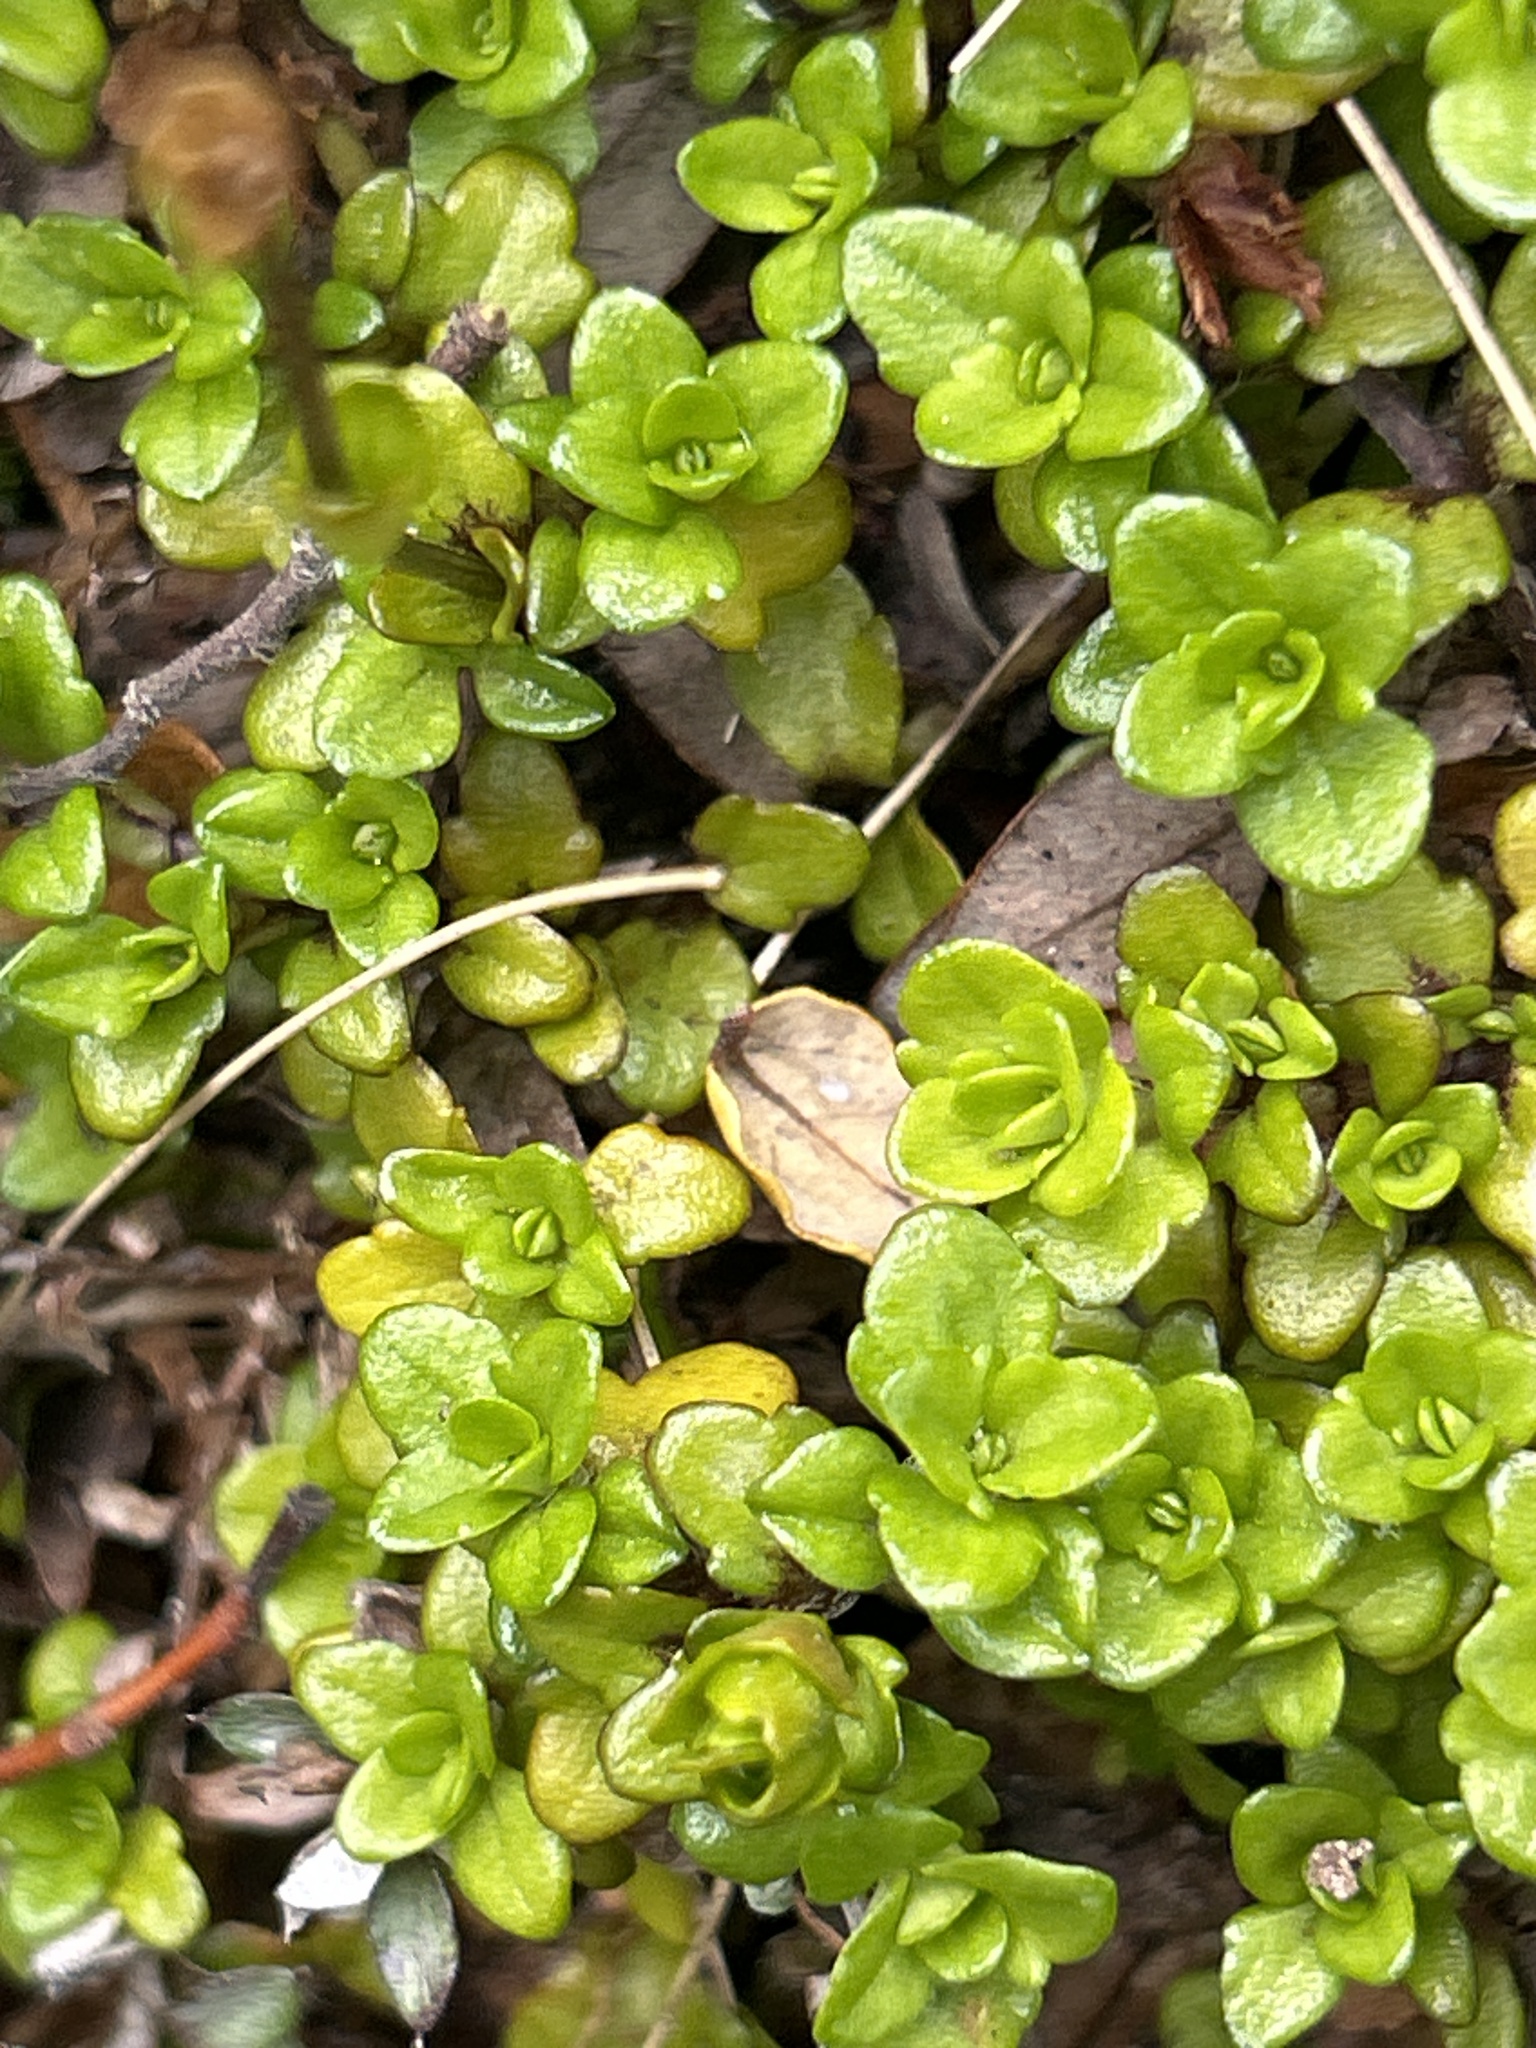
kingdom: Plantae
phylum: Tracheophyta
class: Magnoliopsida
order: Lamiales
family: Plantaginaceae
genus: Ourisia
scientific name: Ourisia caespitosa
